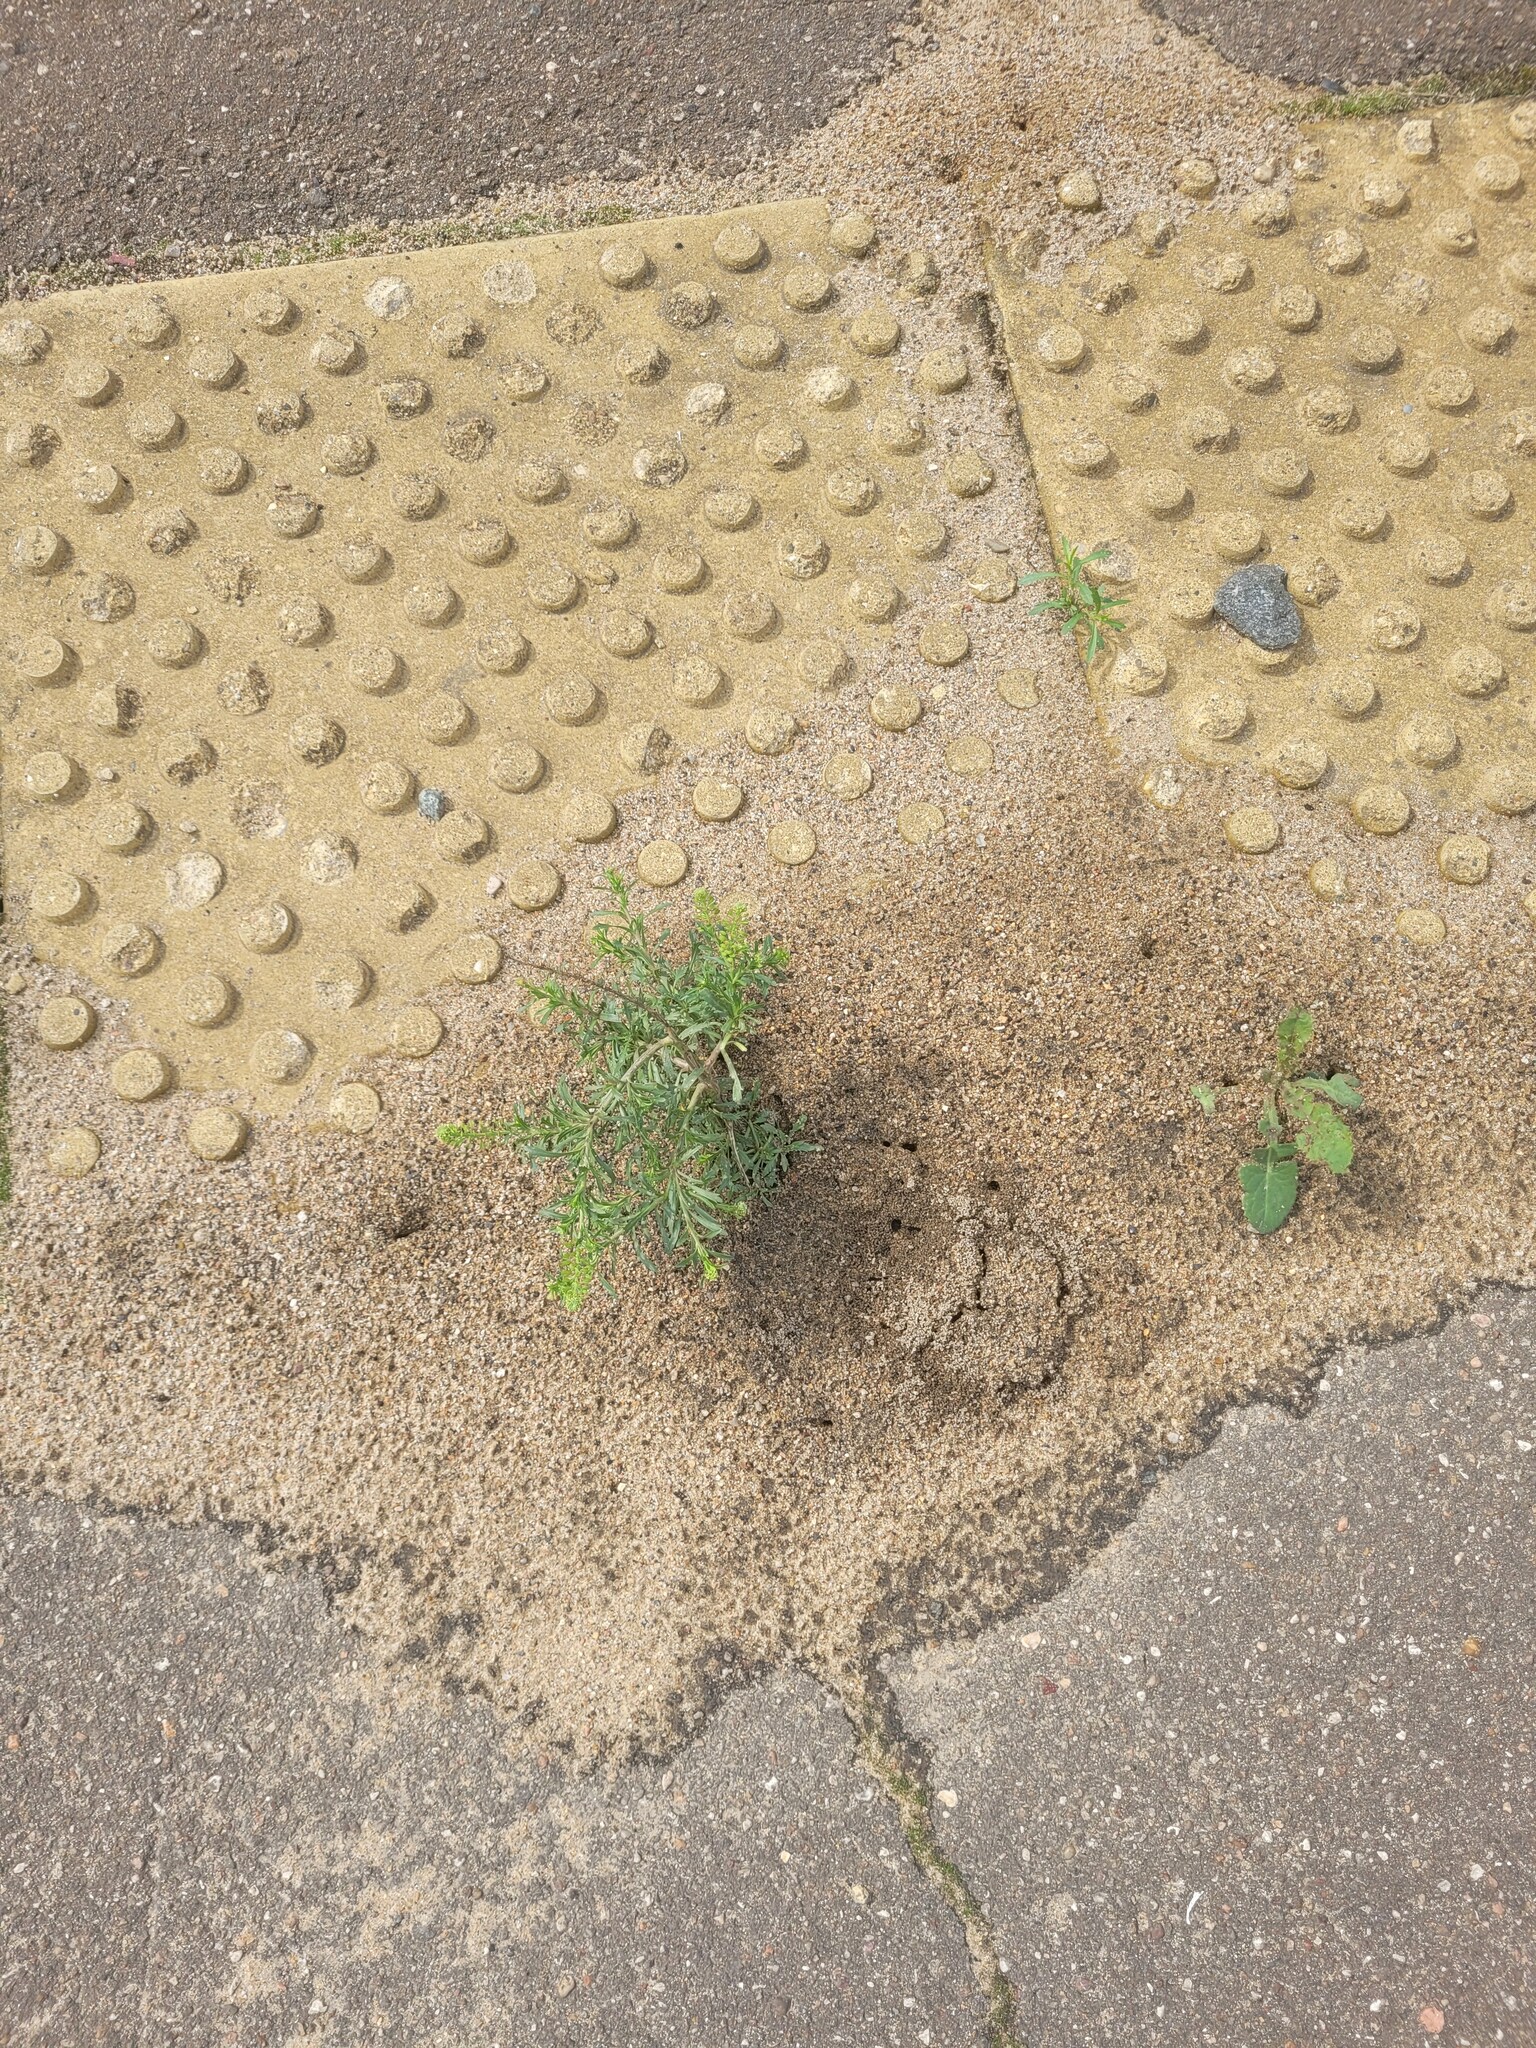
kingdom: Plantae
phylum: Tracheophyta
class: Magnoliopsida
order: Brassicales
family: Brassicaceae
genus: Lepidium
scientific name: Lepidium densiflorum
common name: Miner's pepperwort
